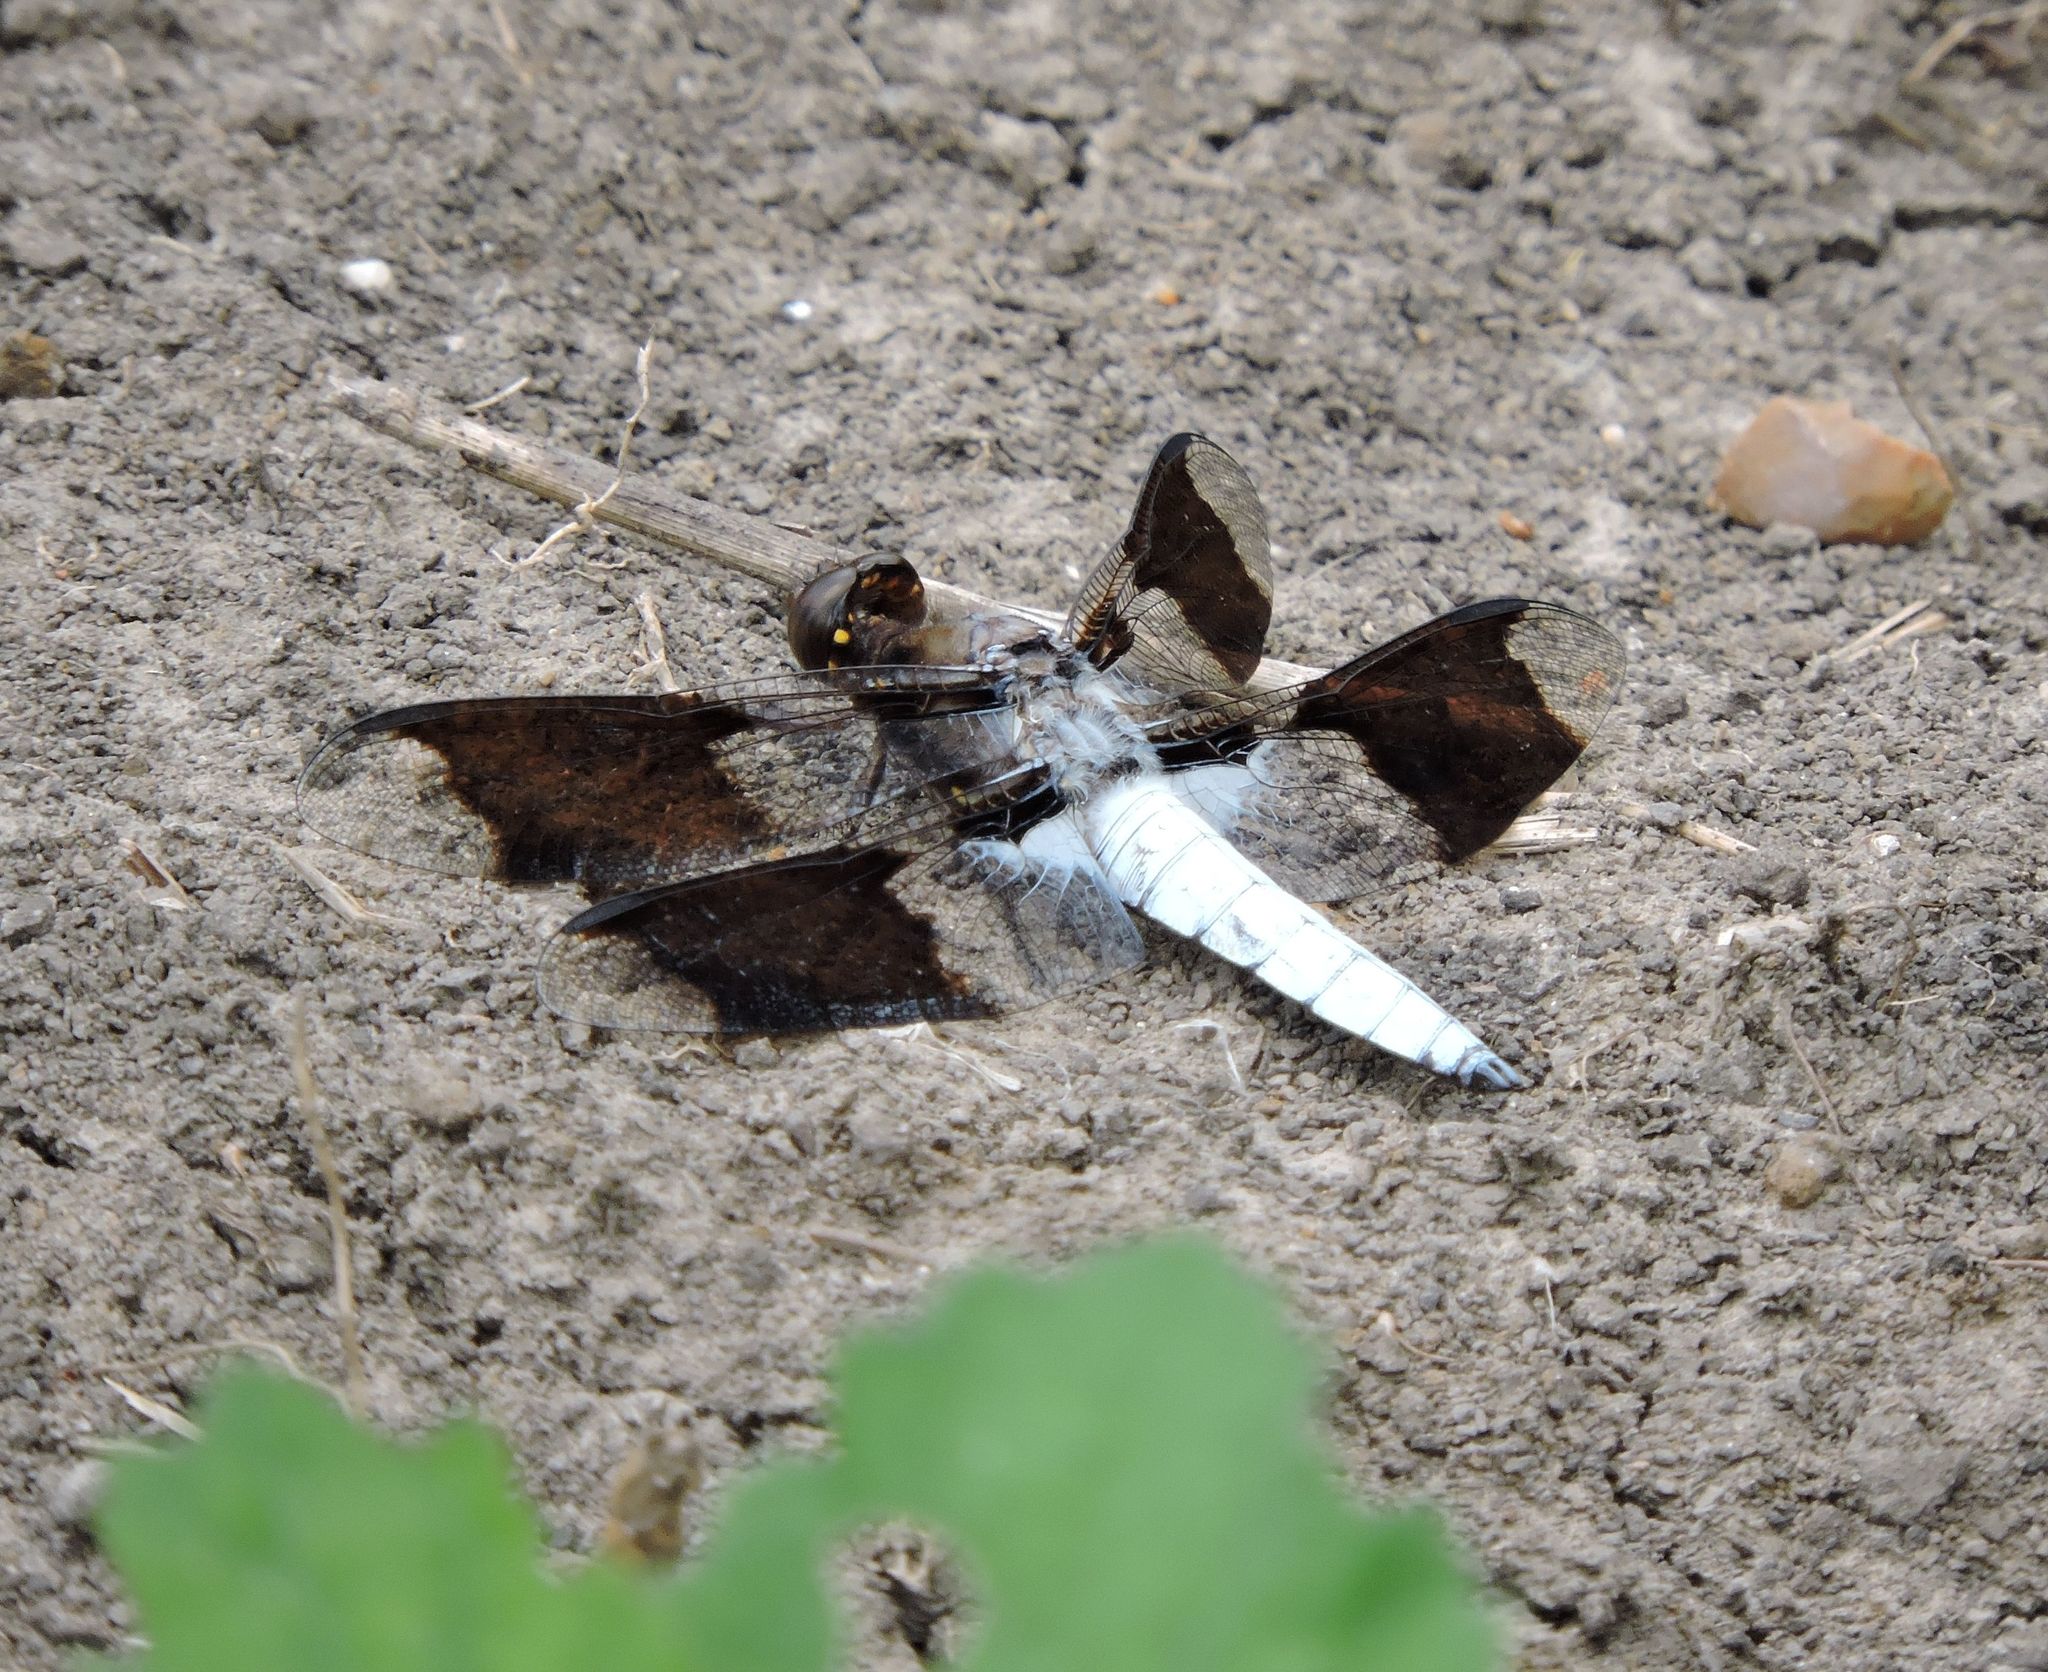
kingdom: Animalia
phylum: Arthropoda
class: Insecta
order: Odonata
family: Libellulidae
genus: Plathemis
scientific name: Plathemis lydia
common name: Common whitetail
